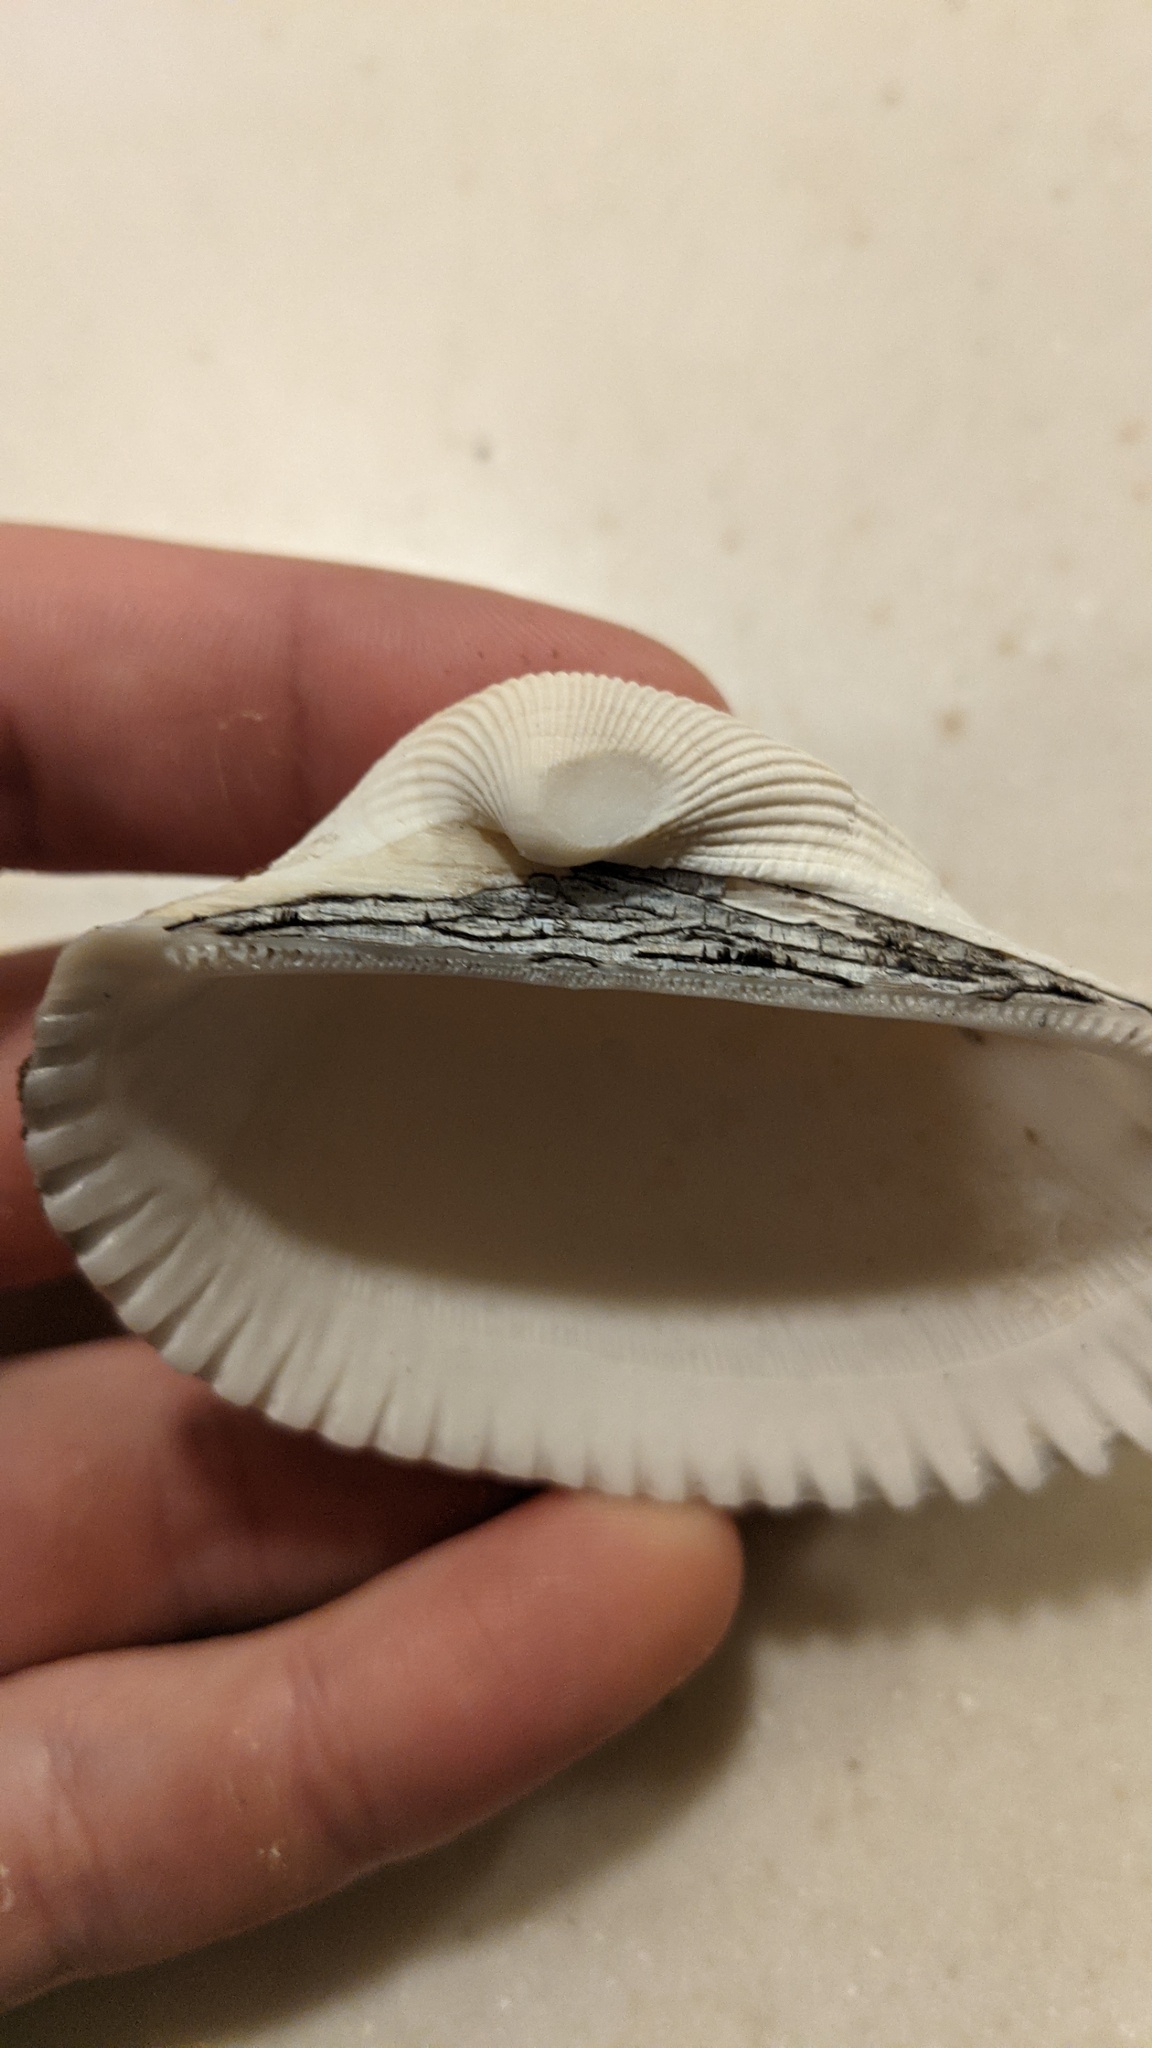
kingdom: Animalia
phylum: Mollusca
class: Bivalvia
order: Arcida
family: Arcidae
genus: Anadara
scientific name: Anadara secticostata
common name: Cut-ribbed ark
